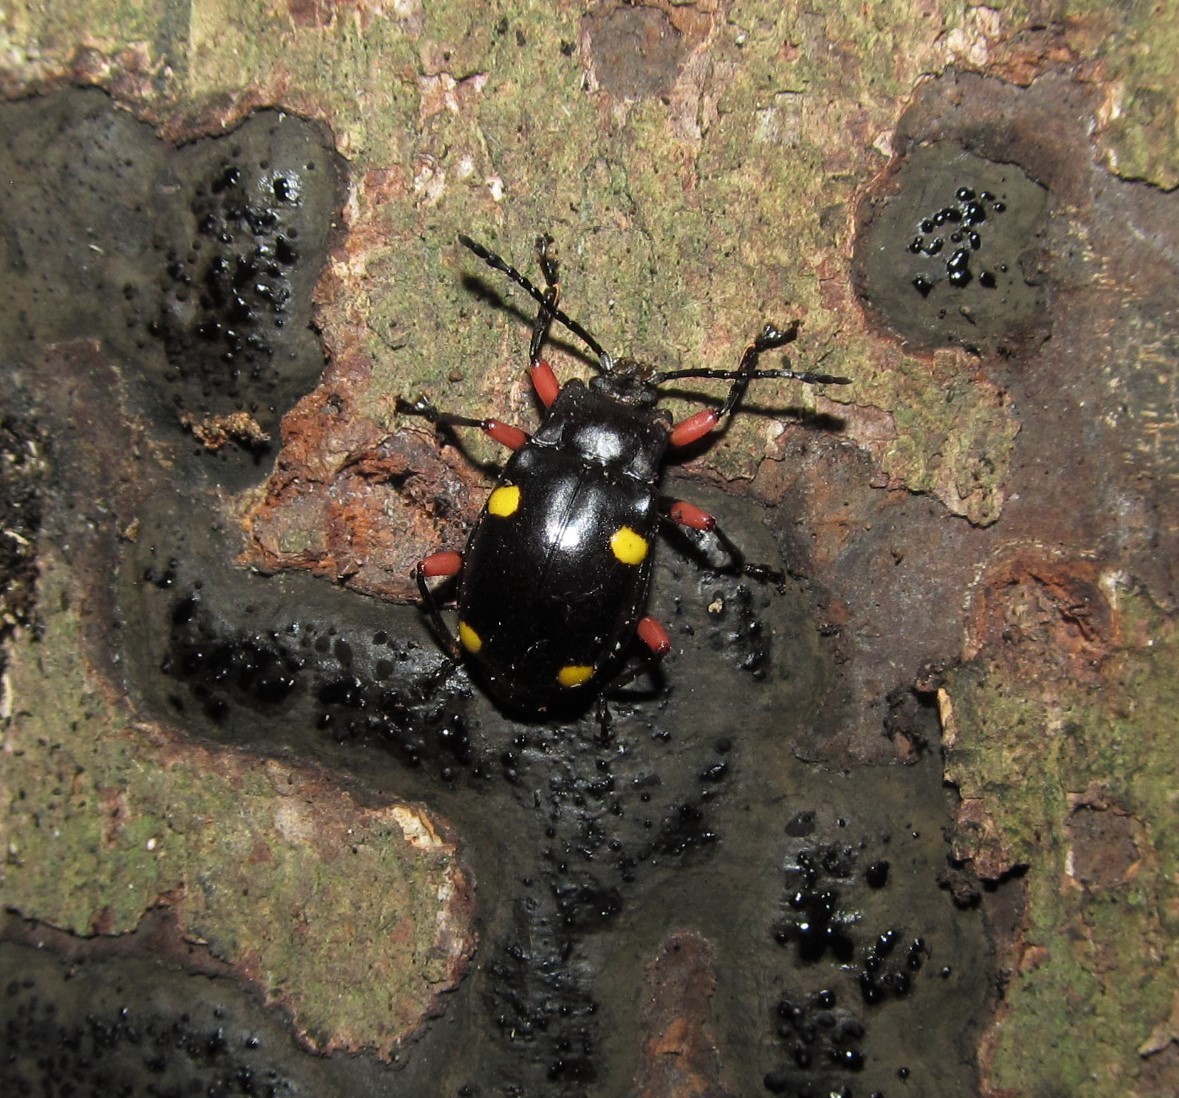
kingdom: Animalia
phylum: Arthropoda
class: Insecta
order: Coleoptera
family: Endomychidae
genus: Eumorphus
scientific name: Eumorphus quadriguttatus
